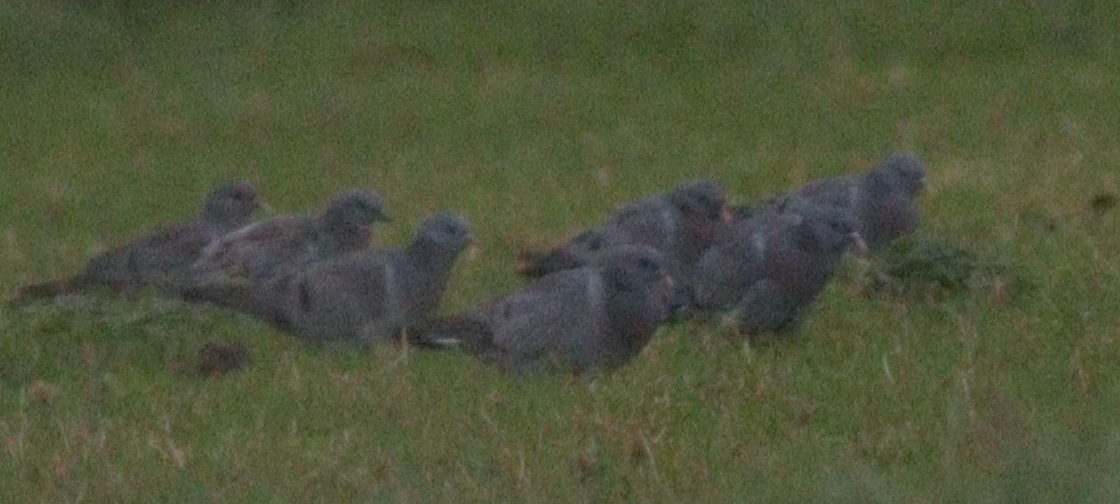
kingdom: Animalia
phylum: Chordata
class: Aves
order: Columbiformes
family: Columbidae
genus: Columba
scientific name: Columba oenas
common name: Stock dove
